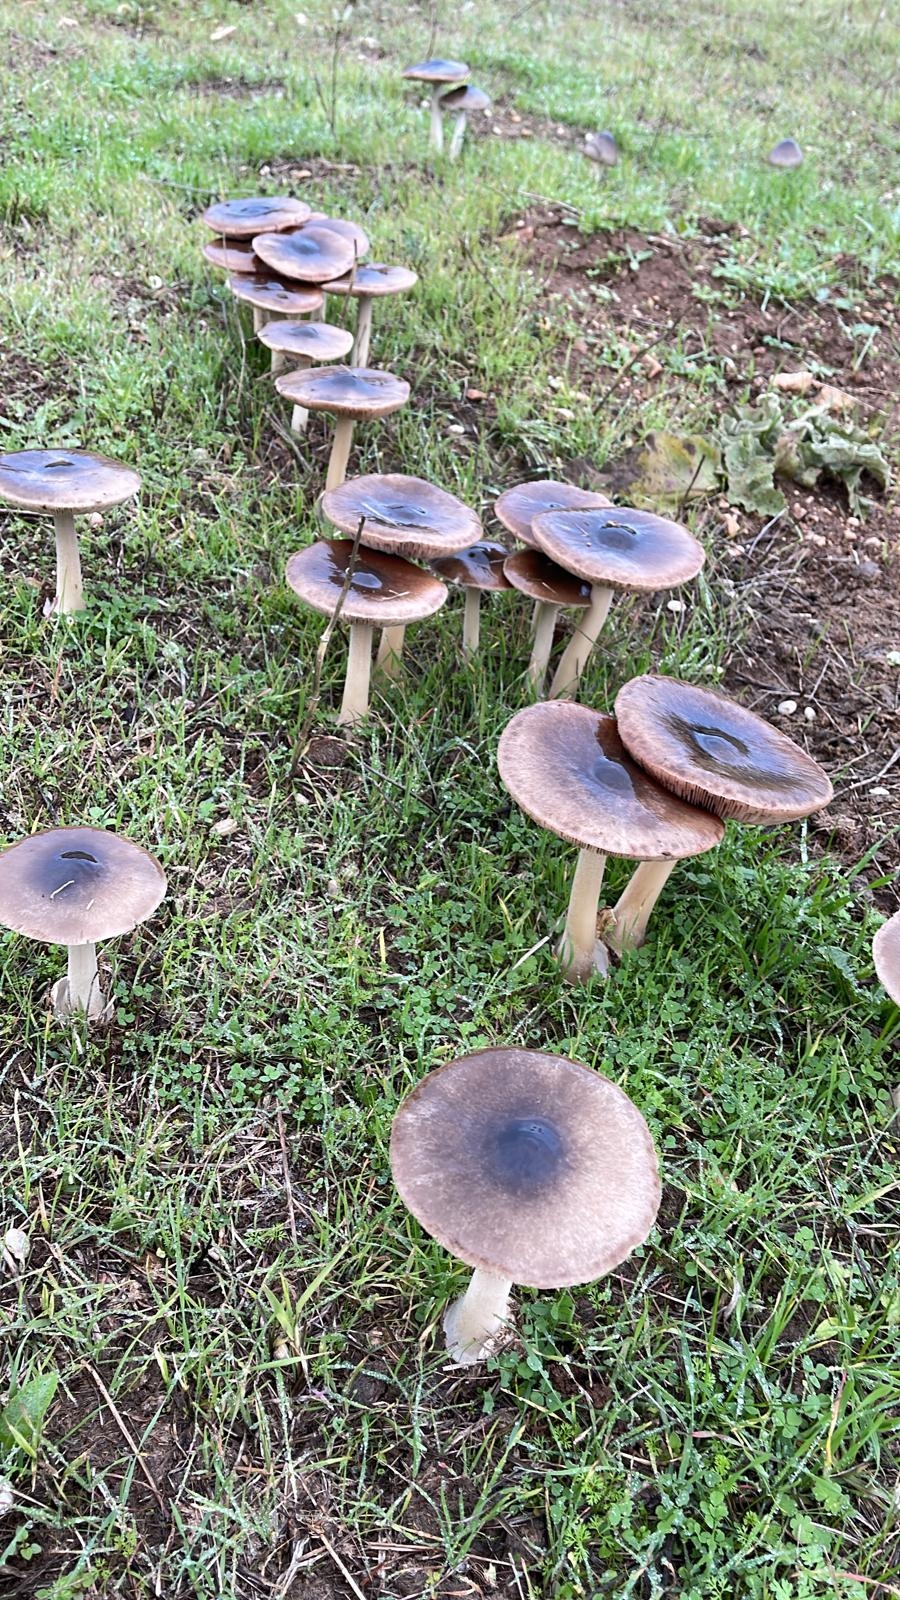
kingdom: Fungi
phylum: Basidiomycota
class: Agaricomycetes
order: Agaricales
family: Pluteaceae
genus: Volvopluteus
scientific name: Volvopluteus gloiocephalus
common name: Stubble rosegill
